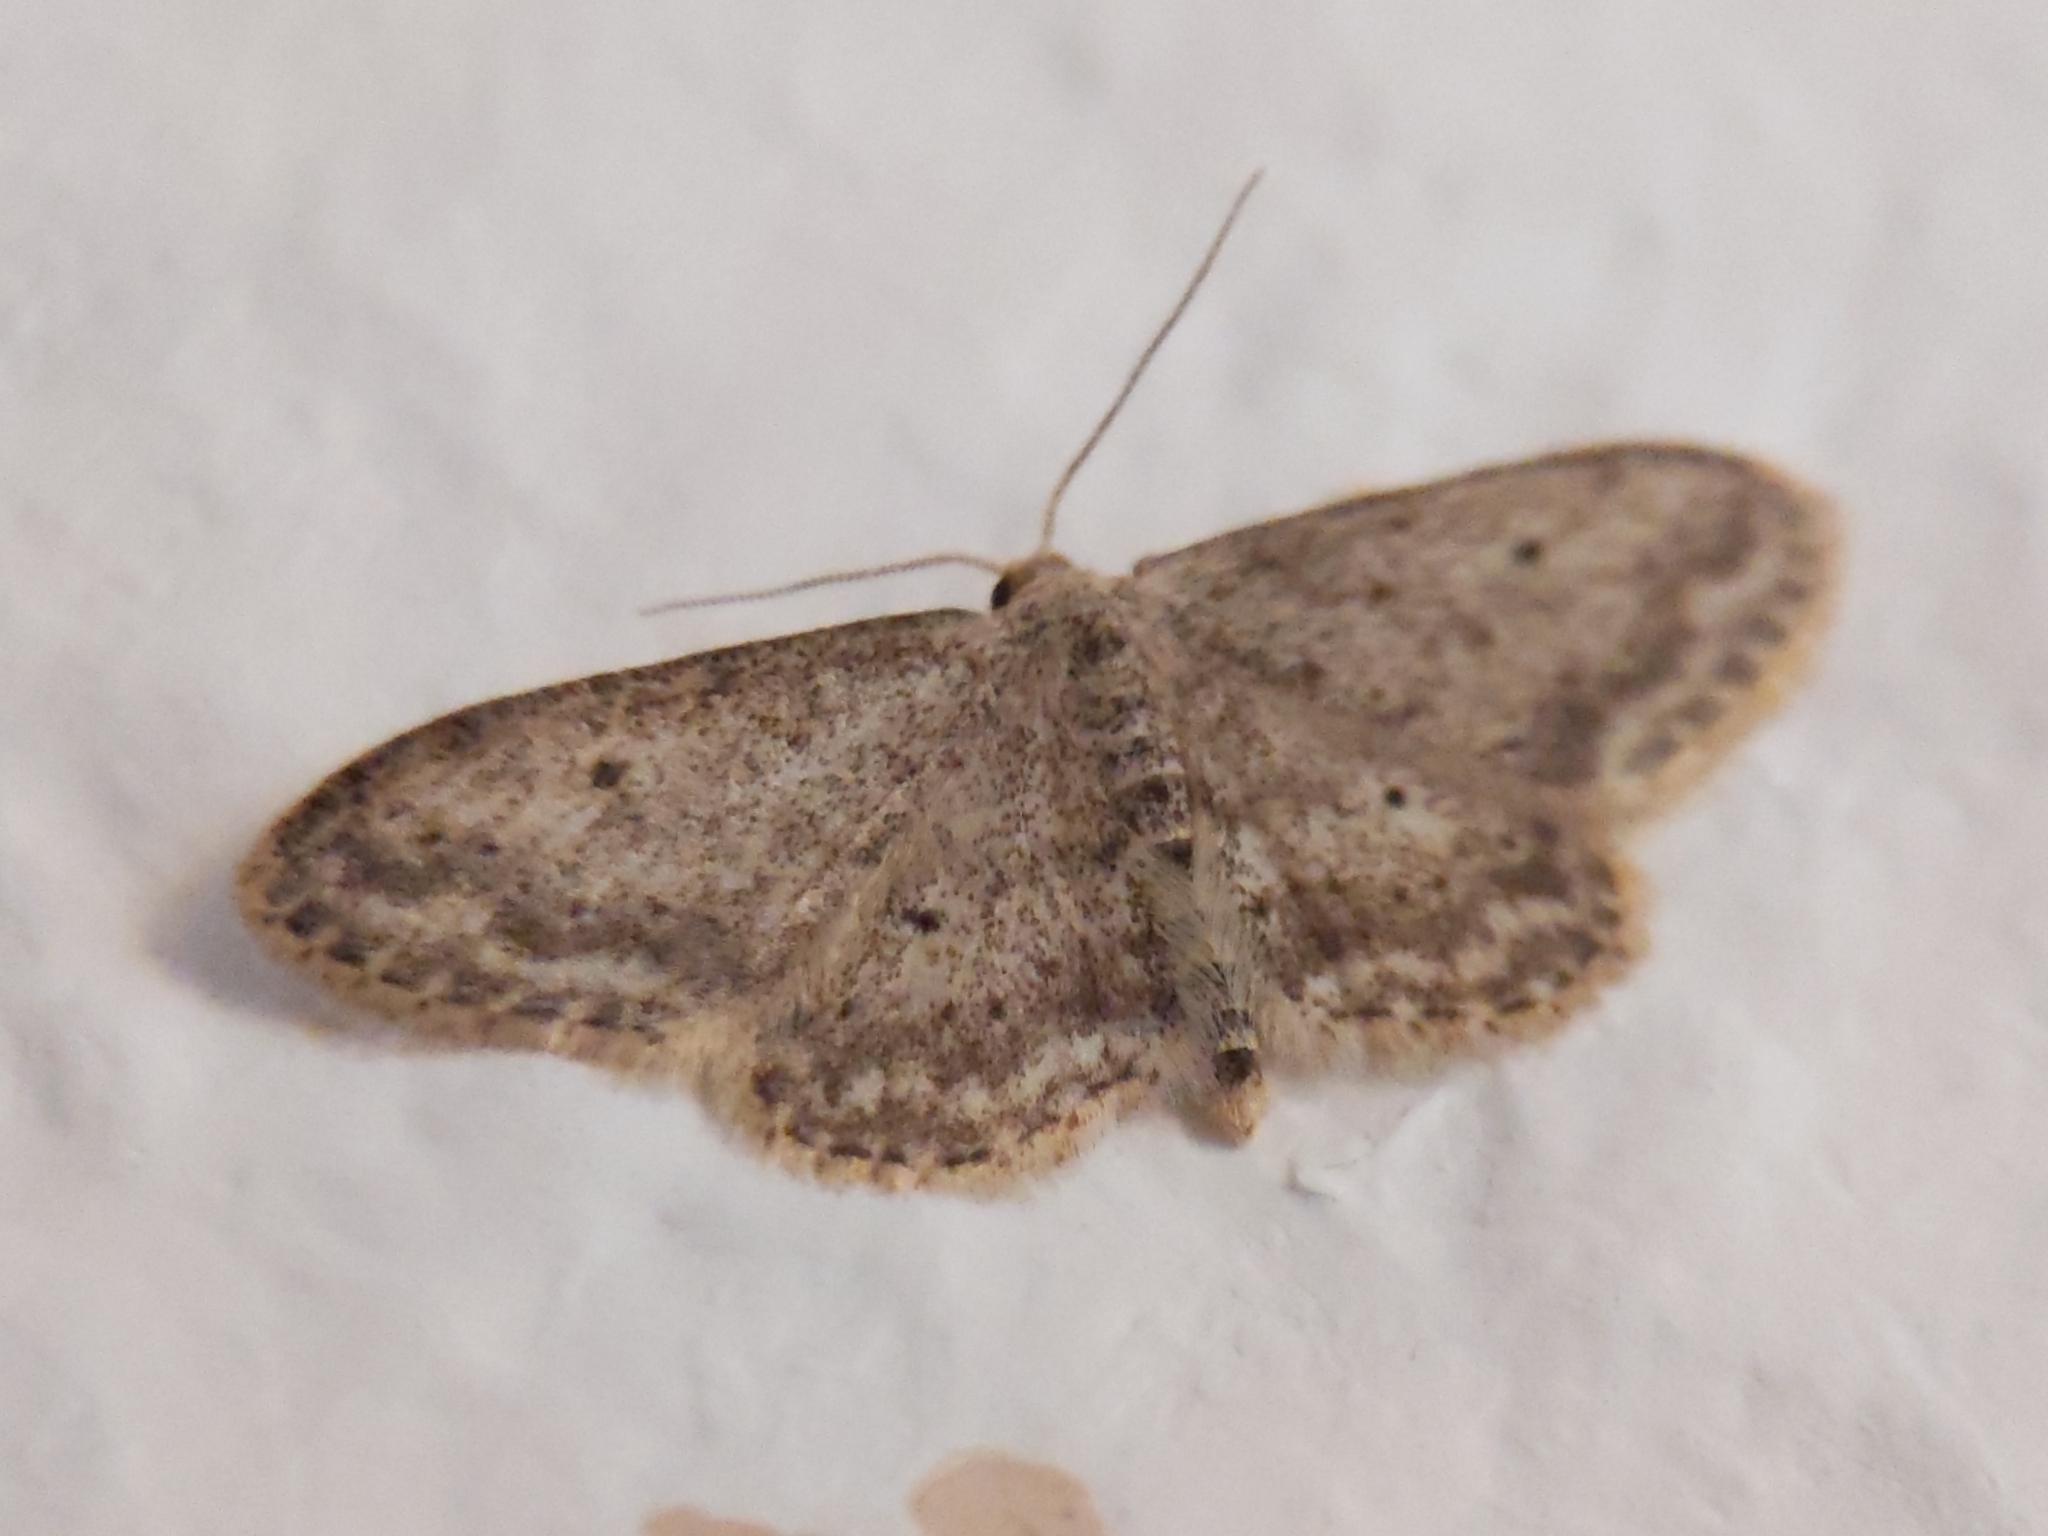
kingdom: Animalia
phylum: Arthropoda
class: Insecta
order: Lepidoptera
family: Geometridae
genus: Idaea
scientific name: Idaea seriata
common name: Small dusty wave
